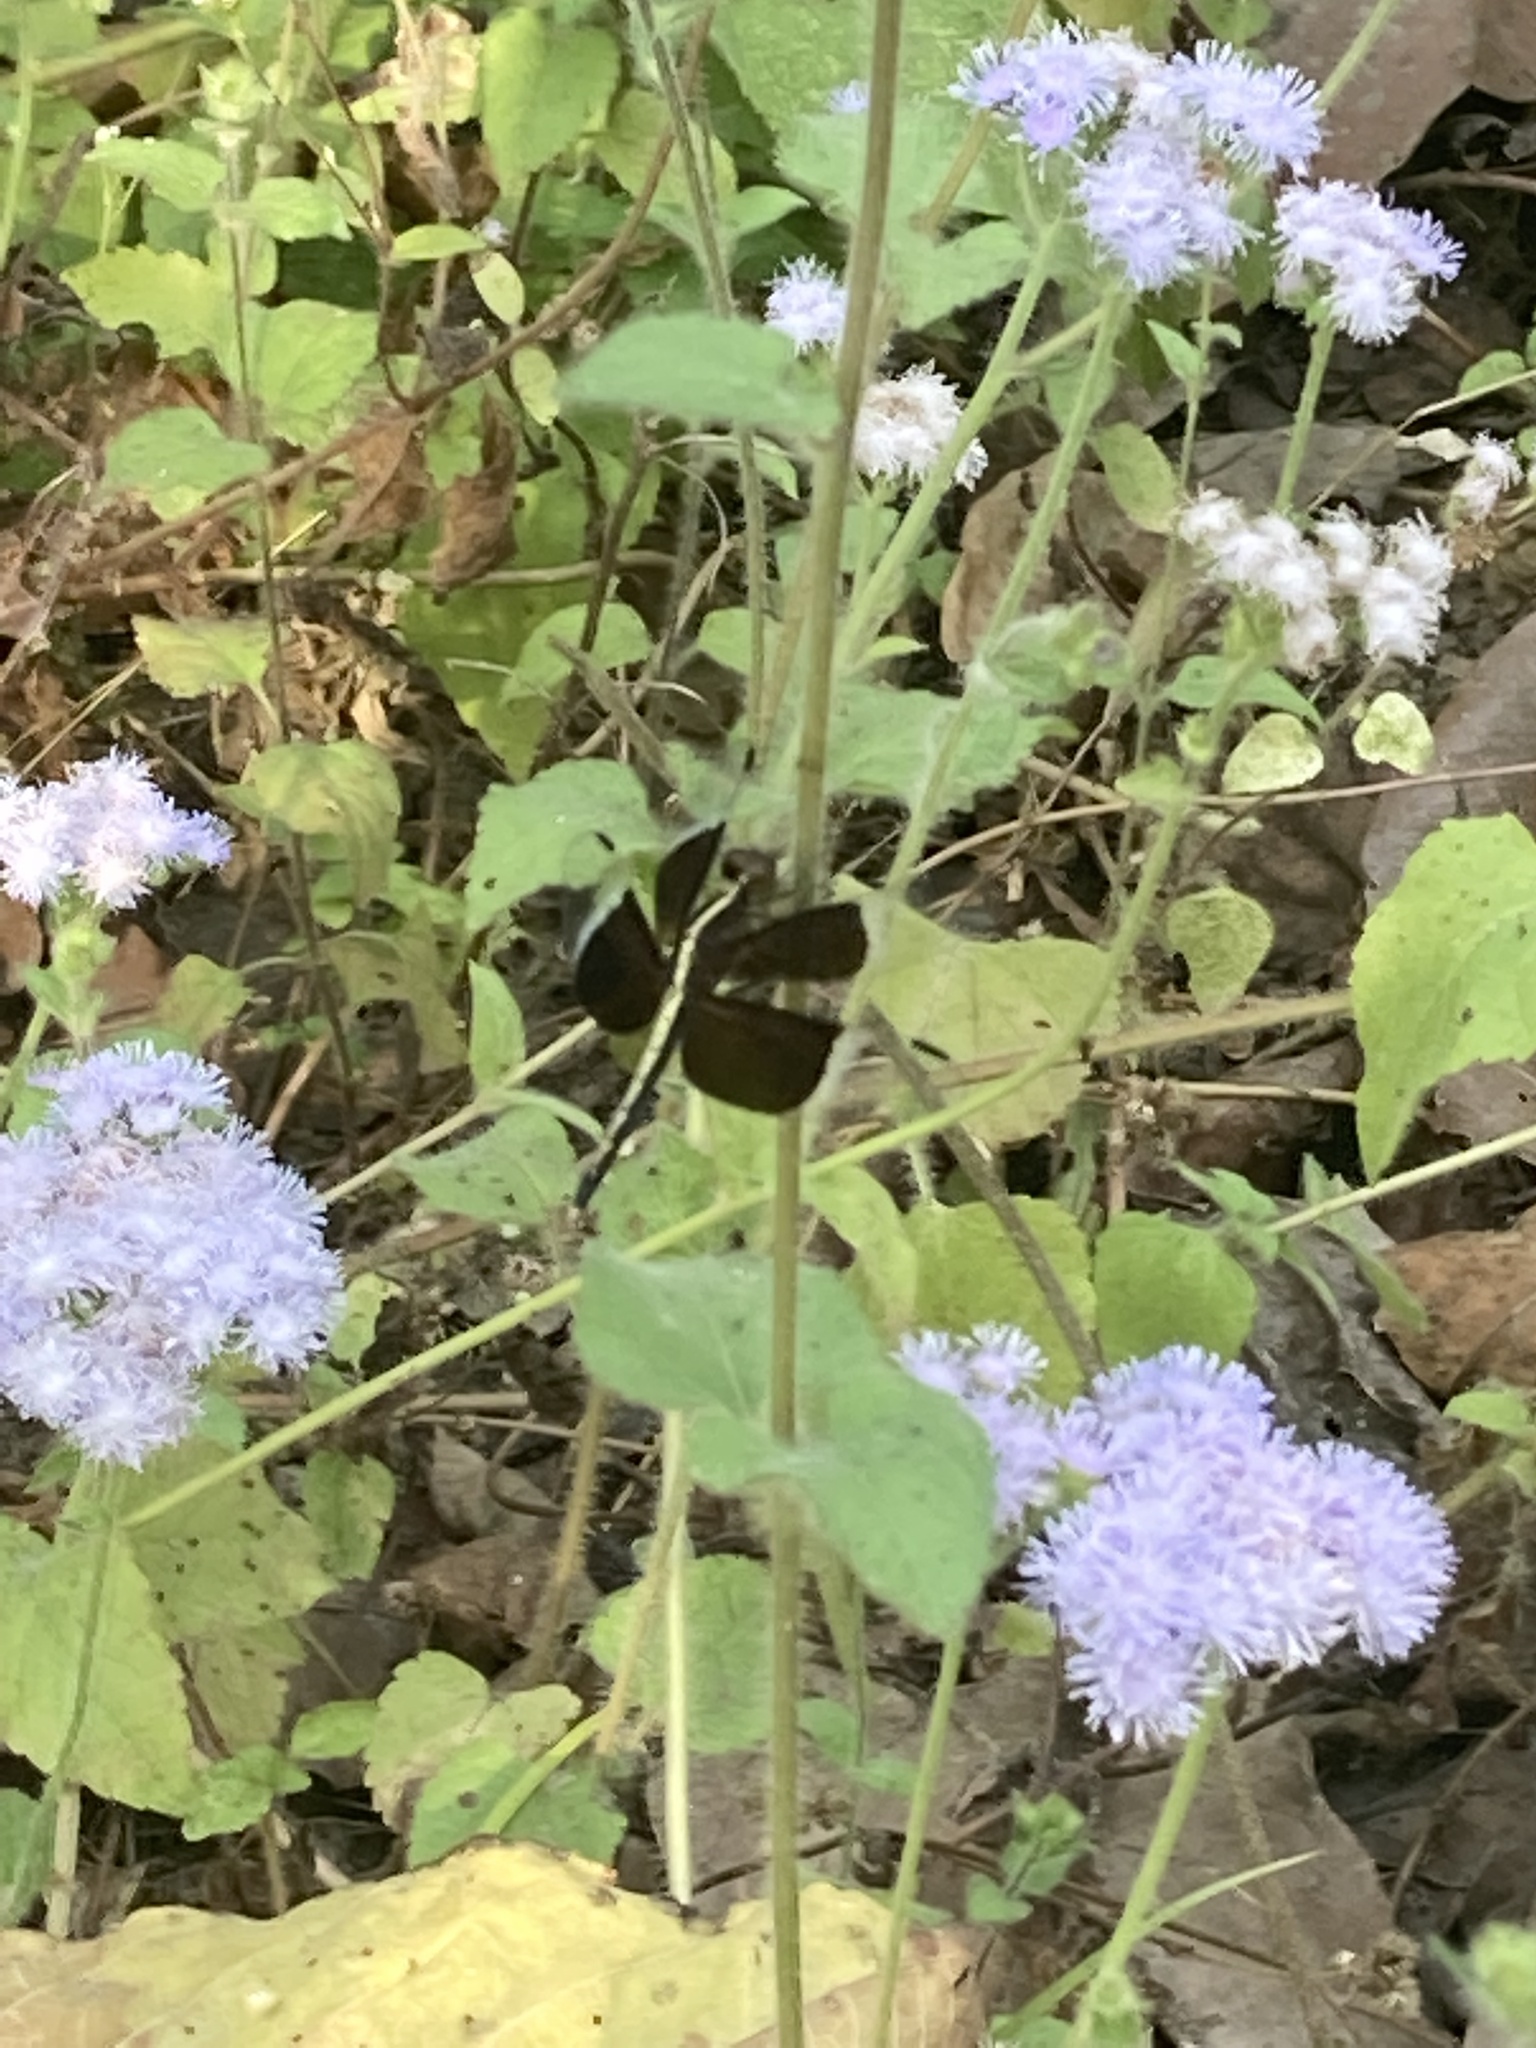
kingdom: Animalia
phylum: Arthropoda
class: Insecta
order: Odonata
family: Libellulidae
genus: Neurothemis
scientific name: Neurothemis tullia
